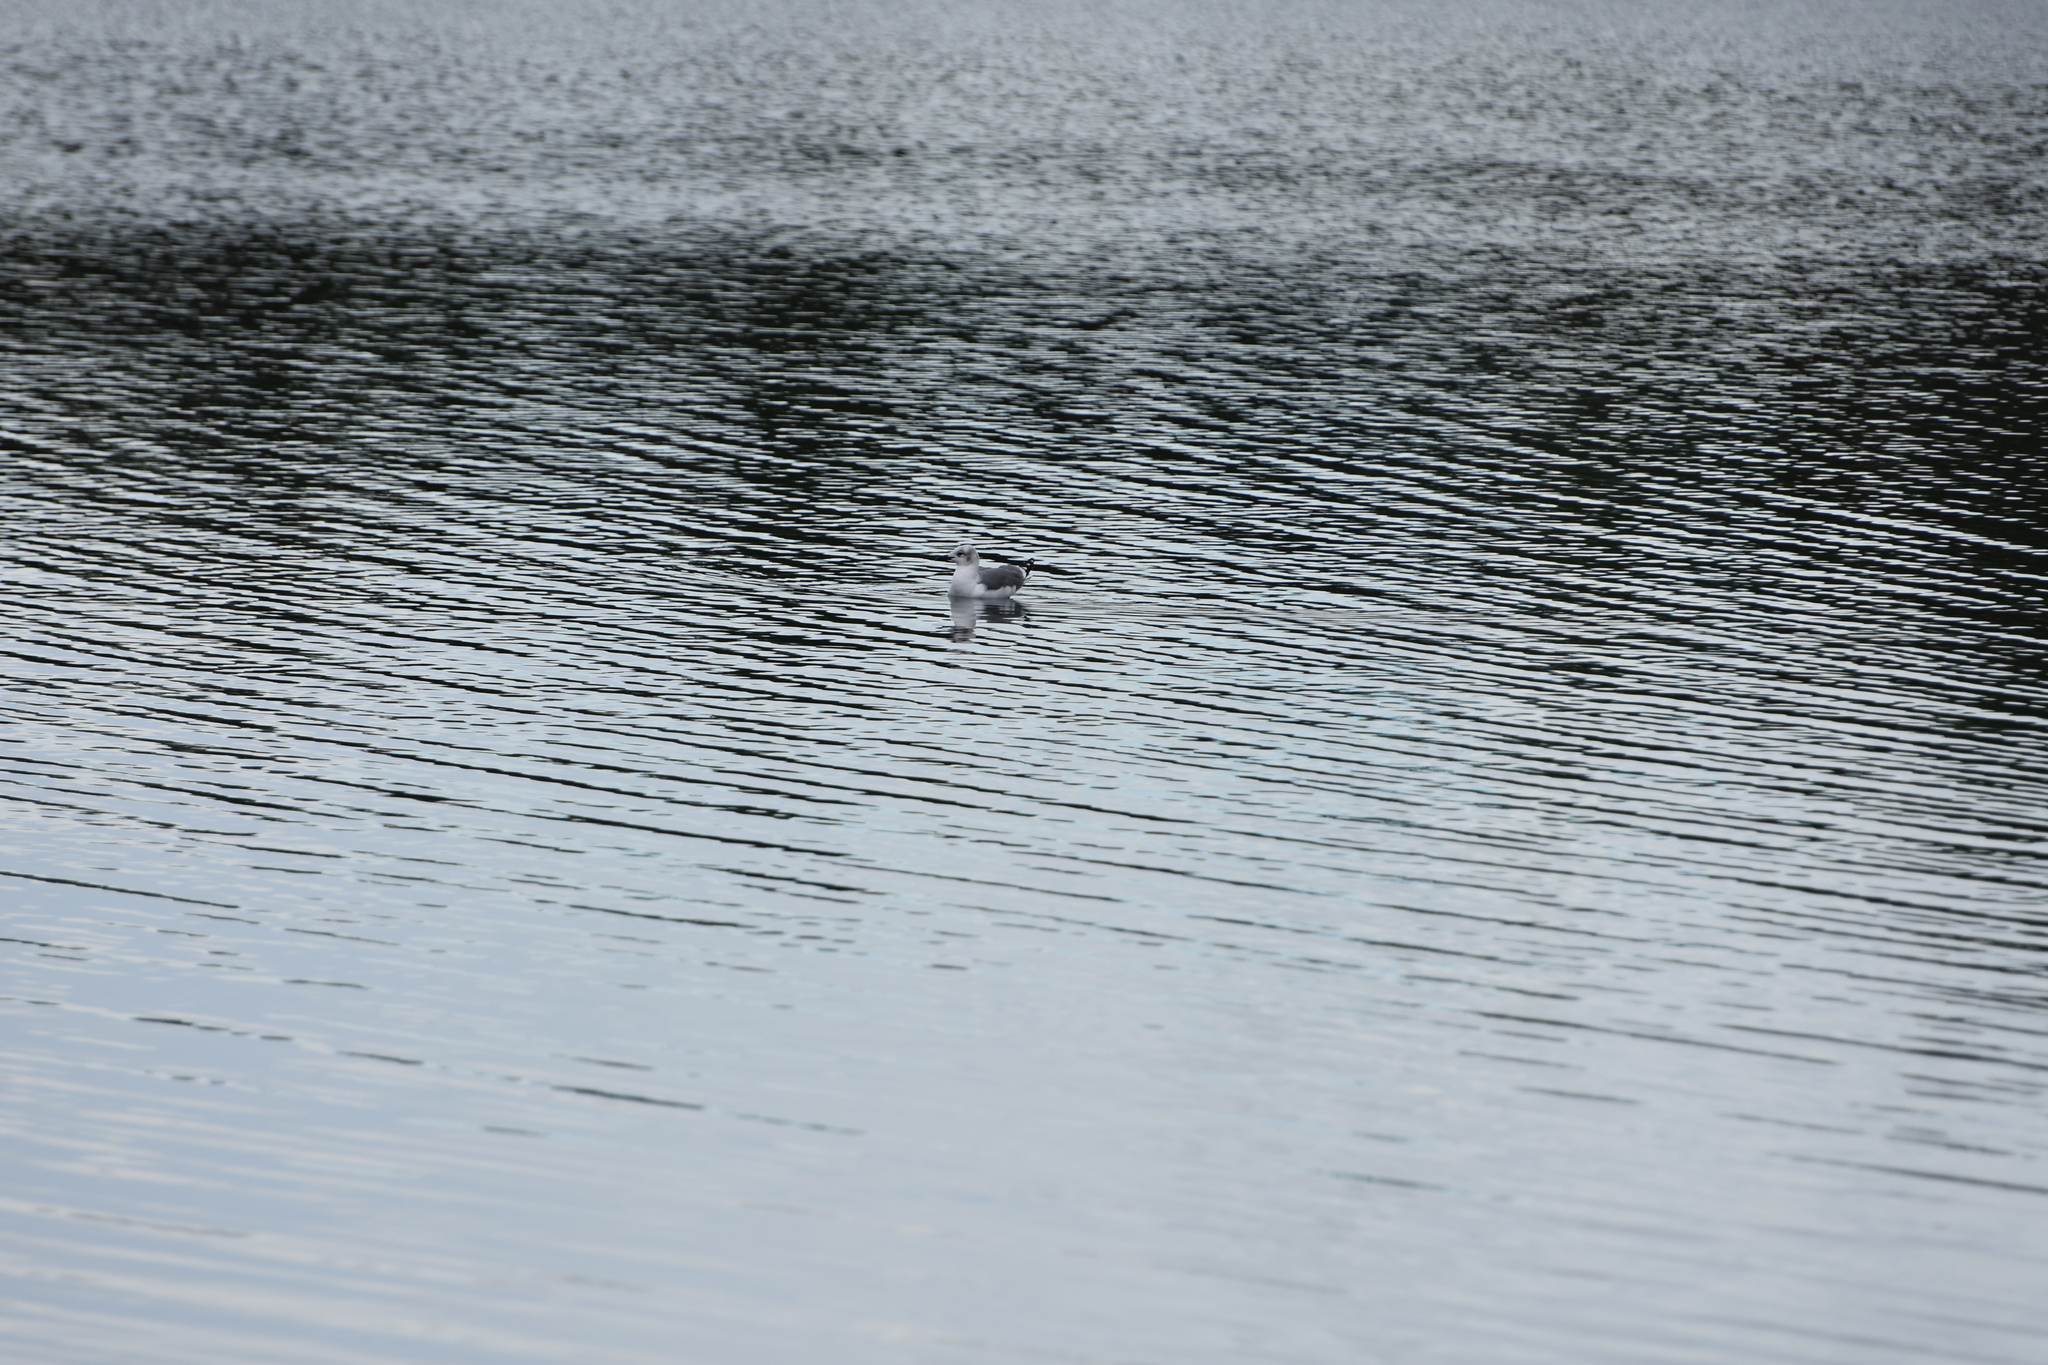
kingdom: Animalia
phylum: Chordata
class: Aves
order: Charadriiformes
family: Laridae
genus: Leucophaeus
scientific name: Leucophaeus atricilla
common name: Laughing gull
